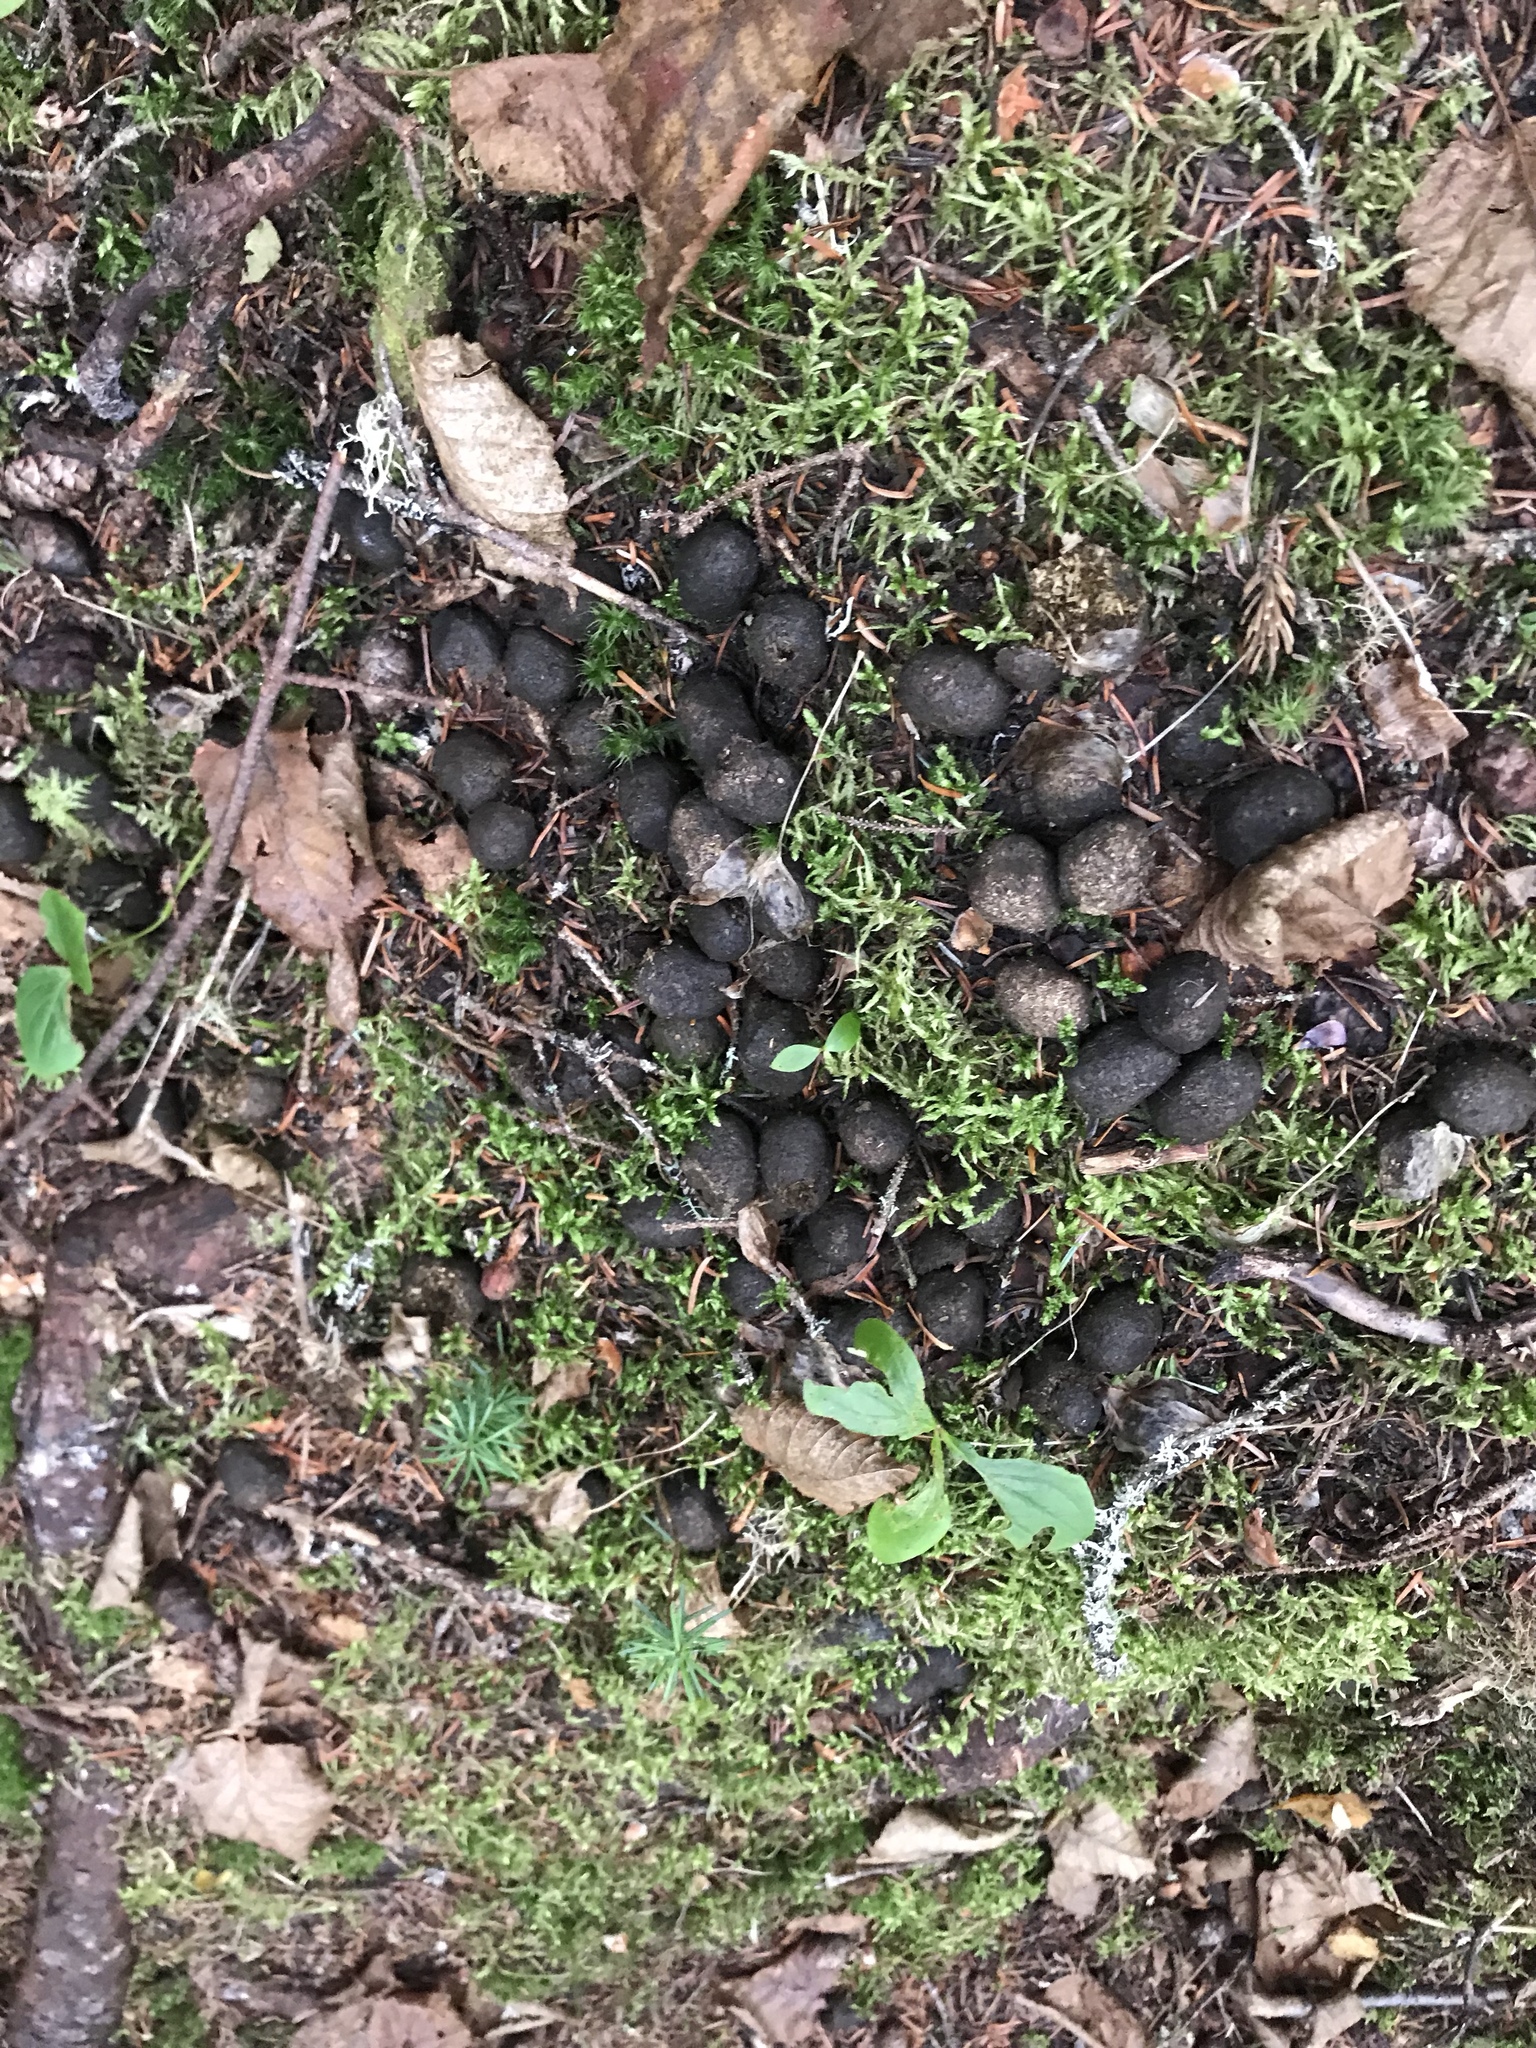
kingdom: Animalia
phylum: Chordata
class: Mammalia
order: Artiodactyla
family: Cervidae
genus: Alces
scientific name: Alces alces
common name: Moose
